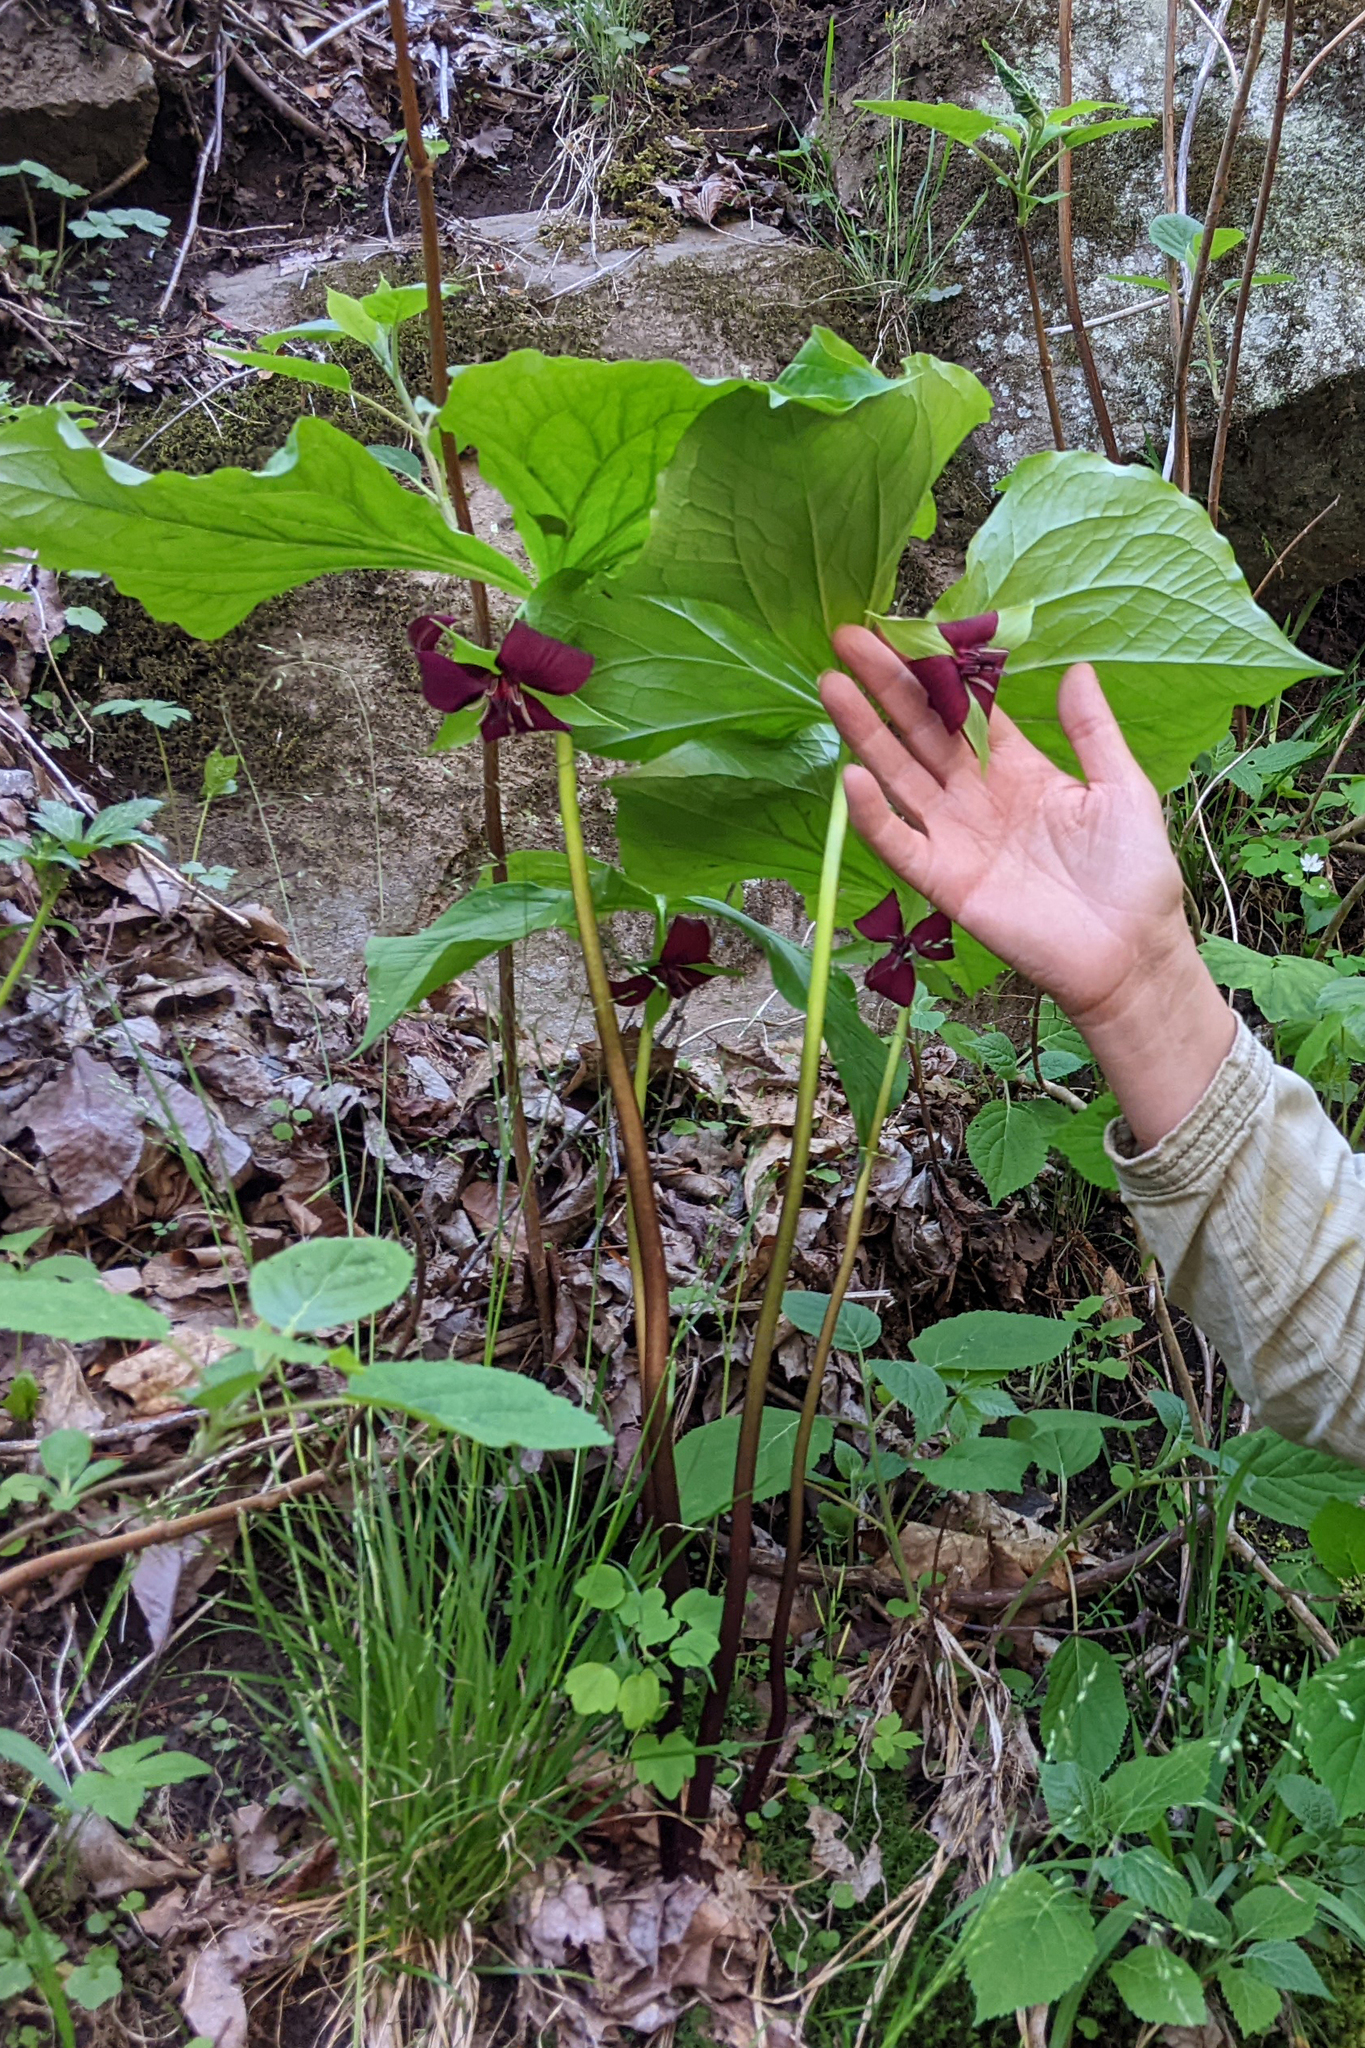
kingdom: Plantae
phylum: Tracheophyta
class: Liliopsida
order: Liliales
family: Melanthiaceae
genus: Trillium
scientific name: Trillium vaseyi
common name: Sweet trillium
